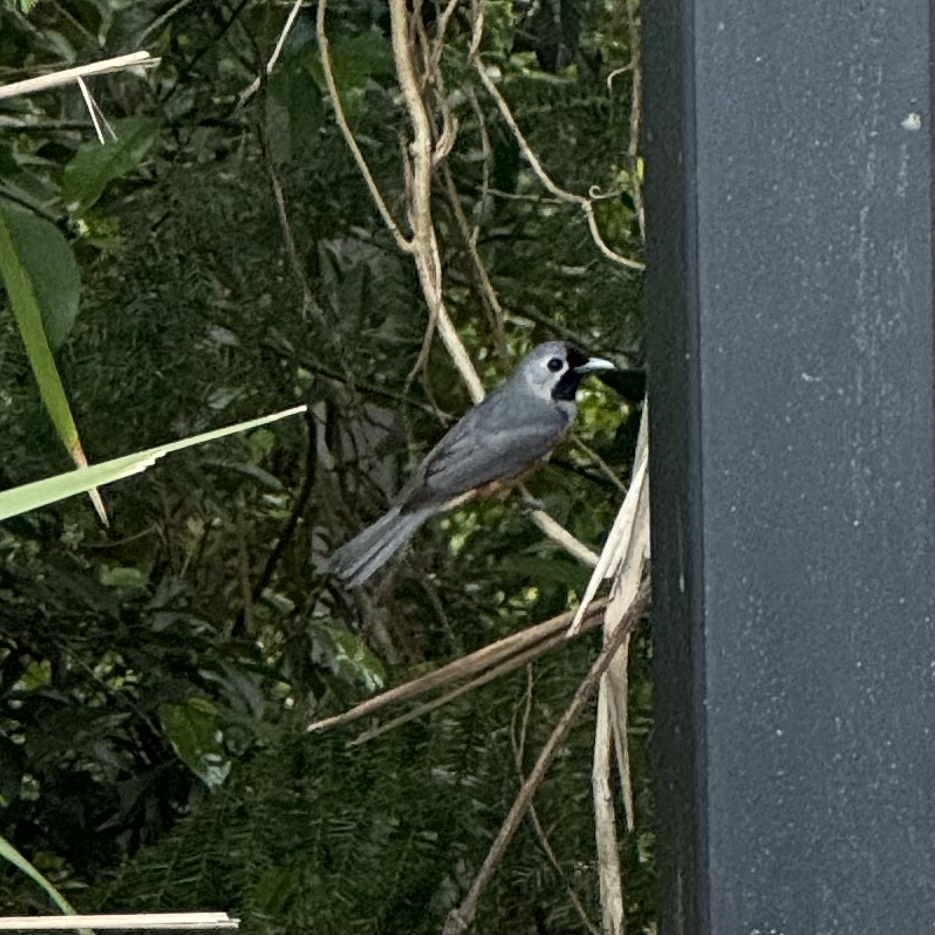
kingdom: Animalia
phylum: Chordata
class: Aves
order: Passeriformes
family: Monarchidae
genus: Monarcha
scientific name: Monarcha melanopsis
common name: Black-faced monarch
